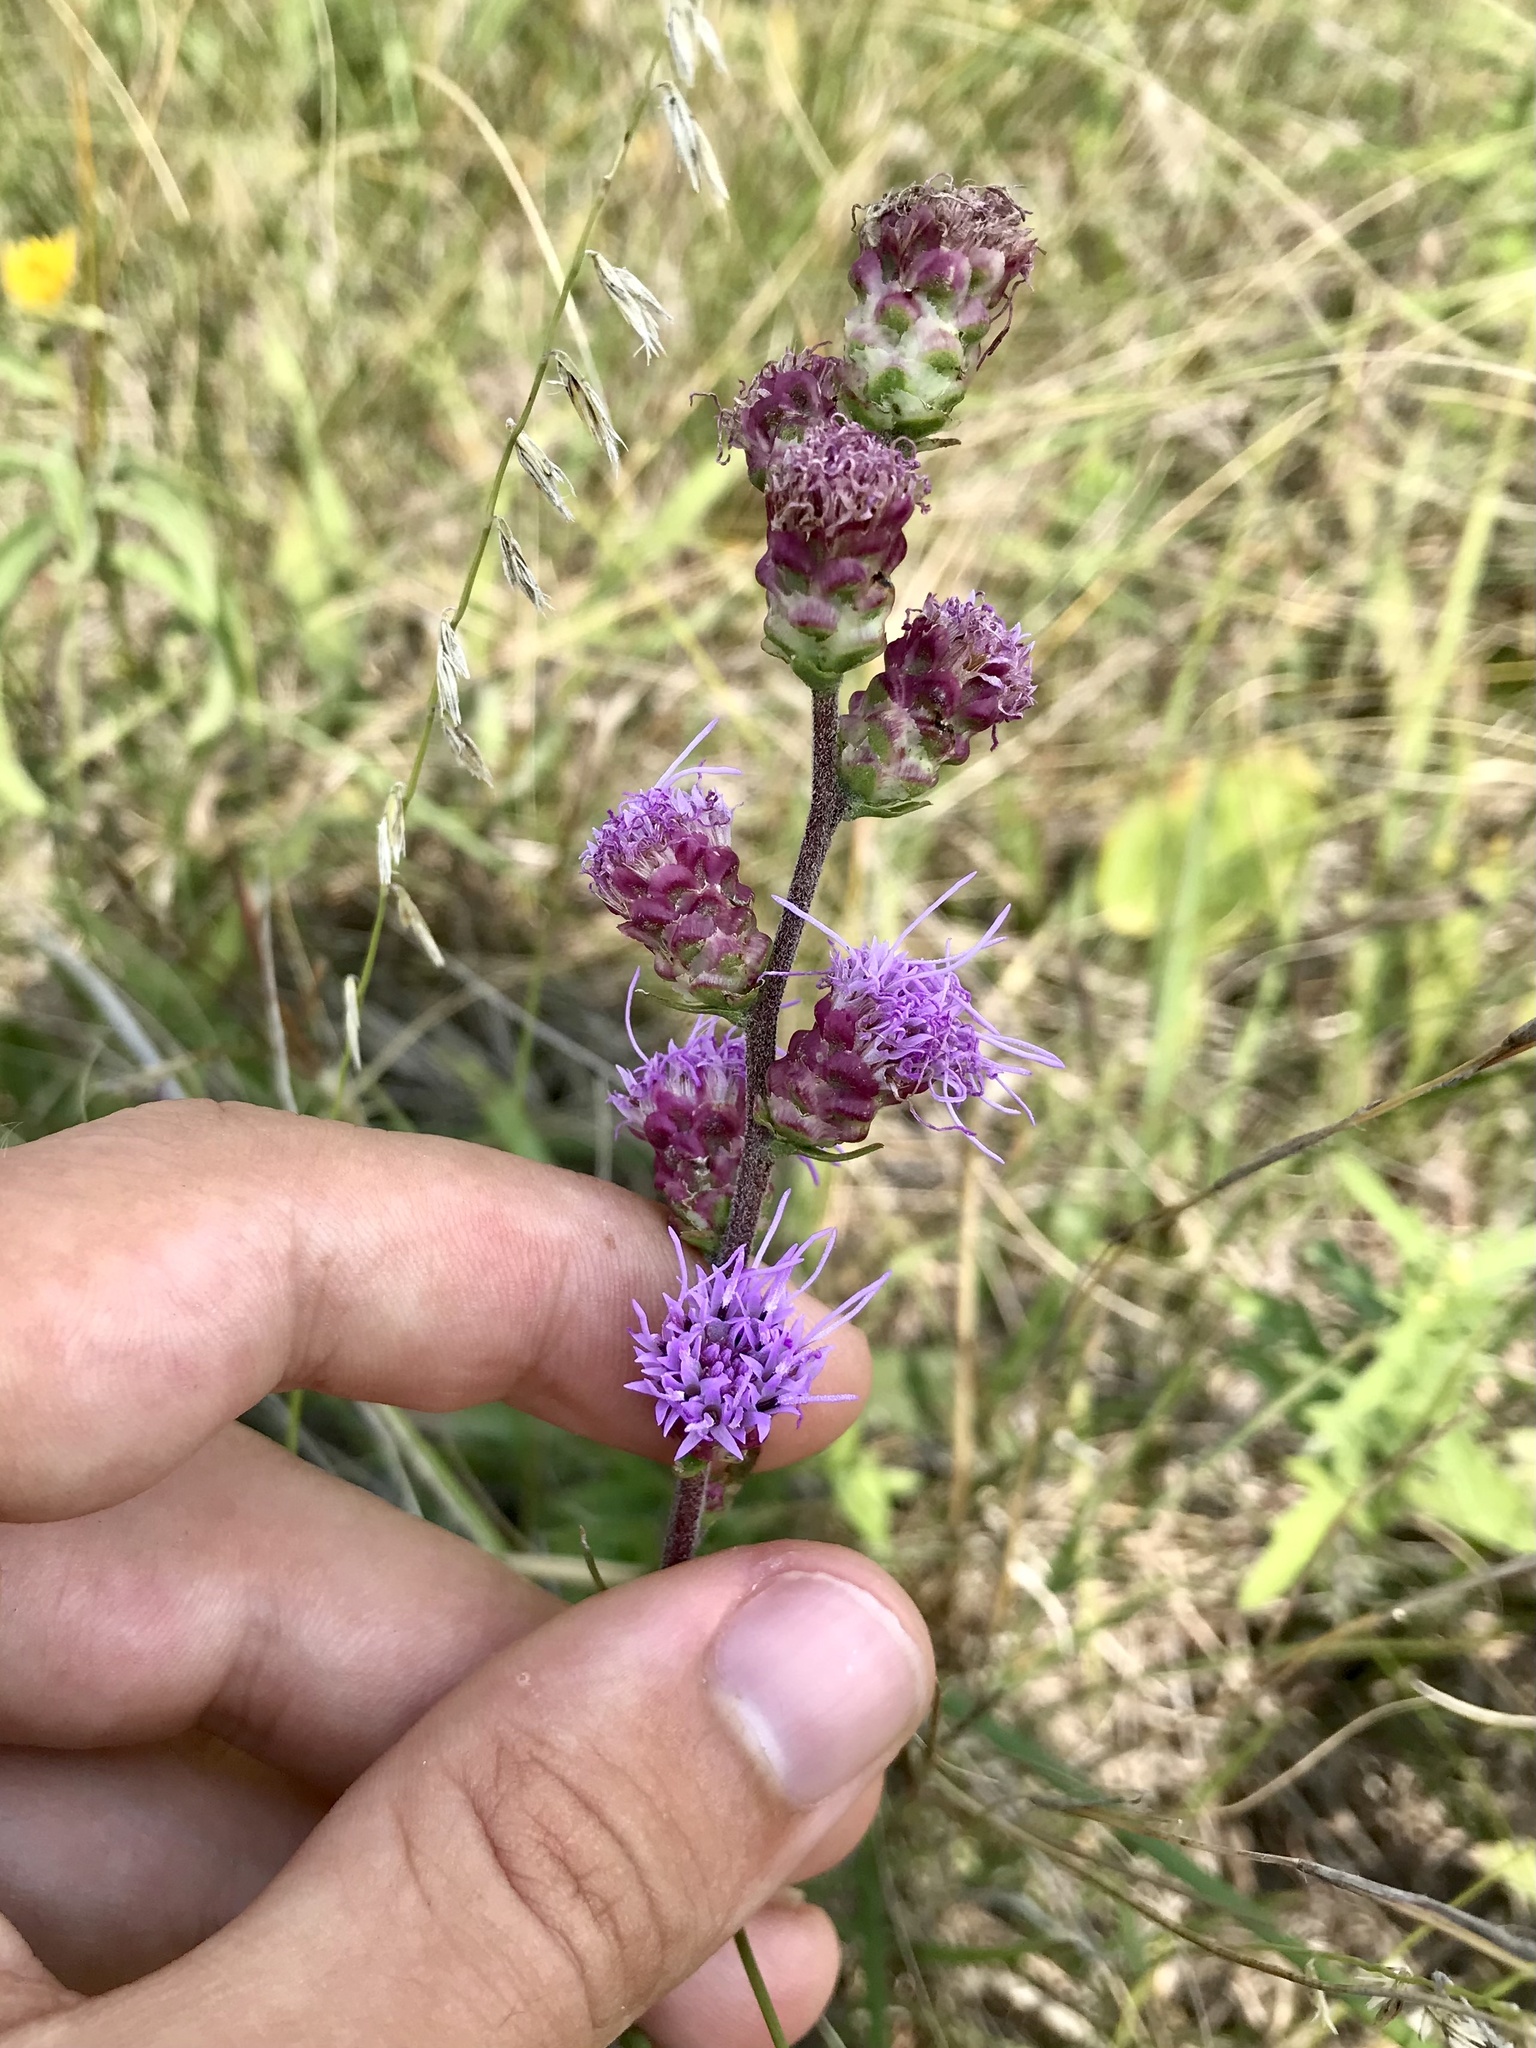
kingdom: Plantae
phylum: Tracheophyta
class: Magnoliopsida
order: Asterales
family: Asteraceae
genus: Liatris
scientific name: Liatris aspera
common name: Lacerate blazing-star
